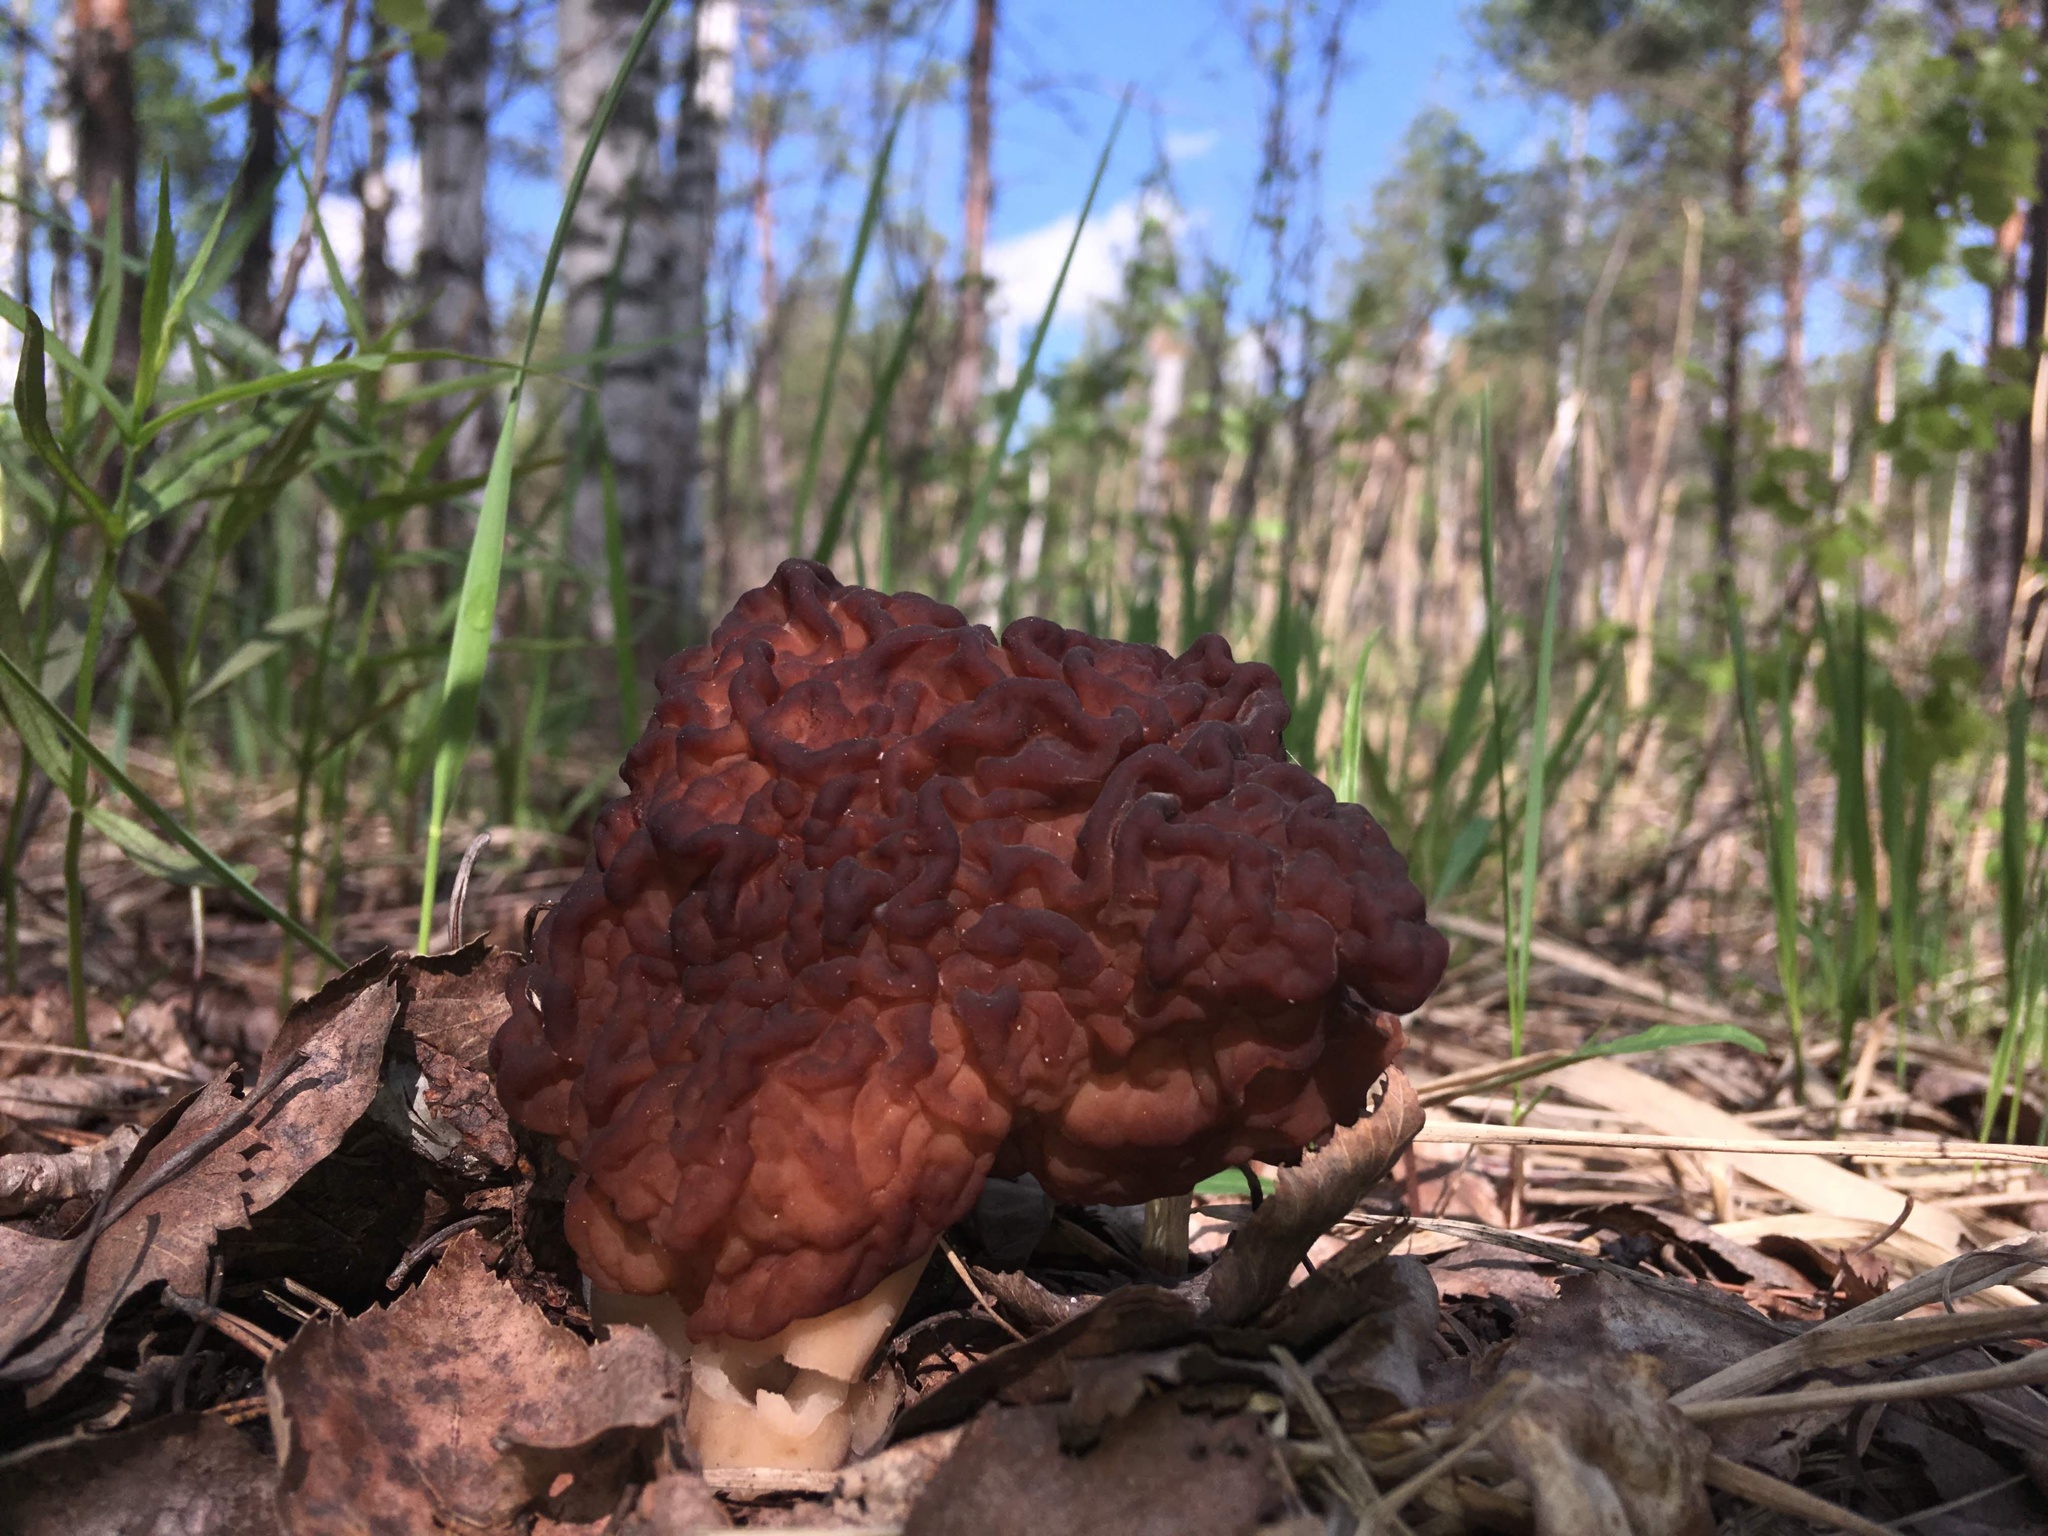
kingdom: Fungi
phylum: Ascomycota
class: Pezizomycetes
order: Pezizales
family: Discinaceae
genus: Gyromitra
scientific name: Gyromitra esculenta
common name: False morel
